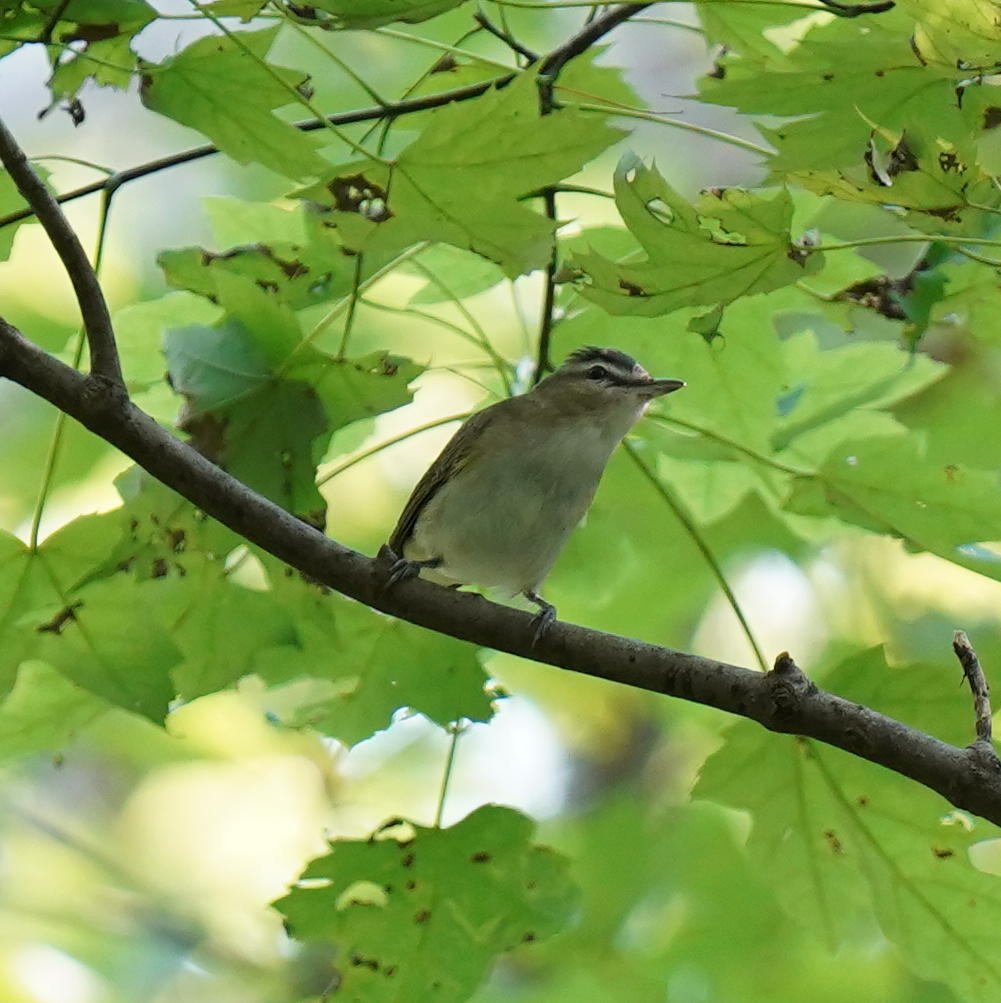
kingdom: Animalia
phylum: Chordata
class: Aves
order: Passeriformes
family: Vireonidae
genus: Vireo
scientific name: Vireo olivaceus
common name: Red-eyed vireo
